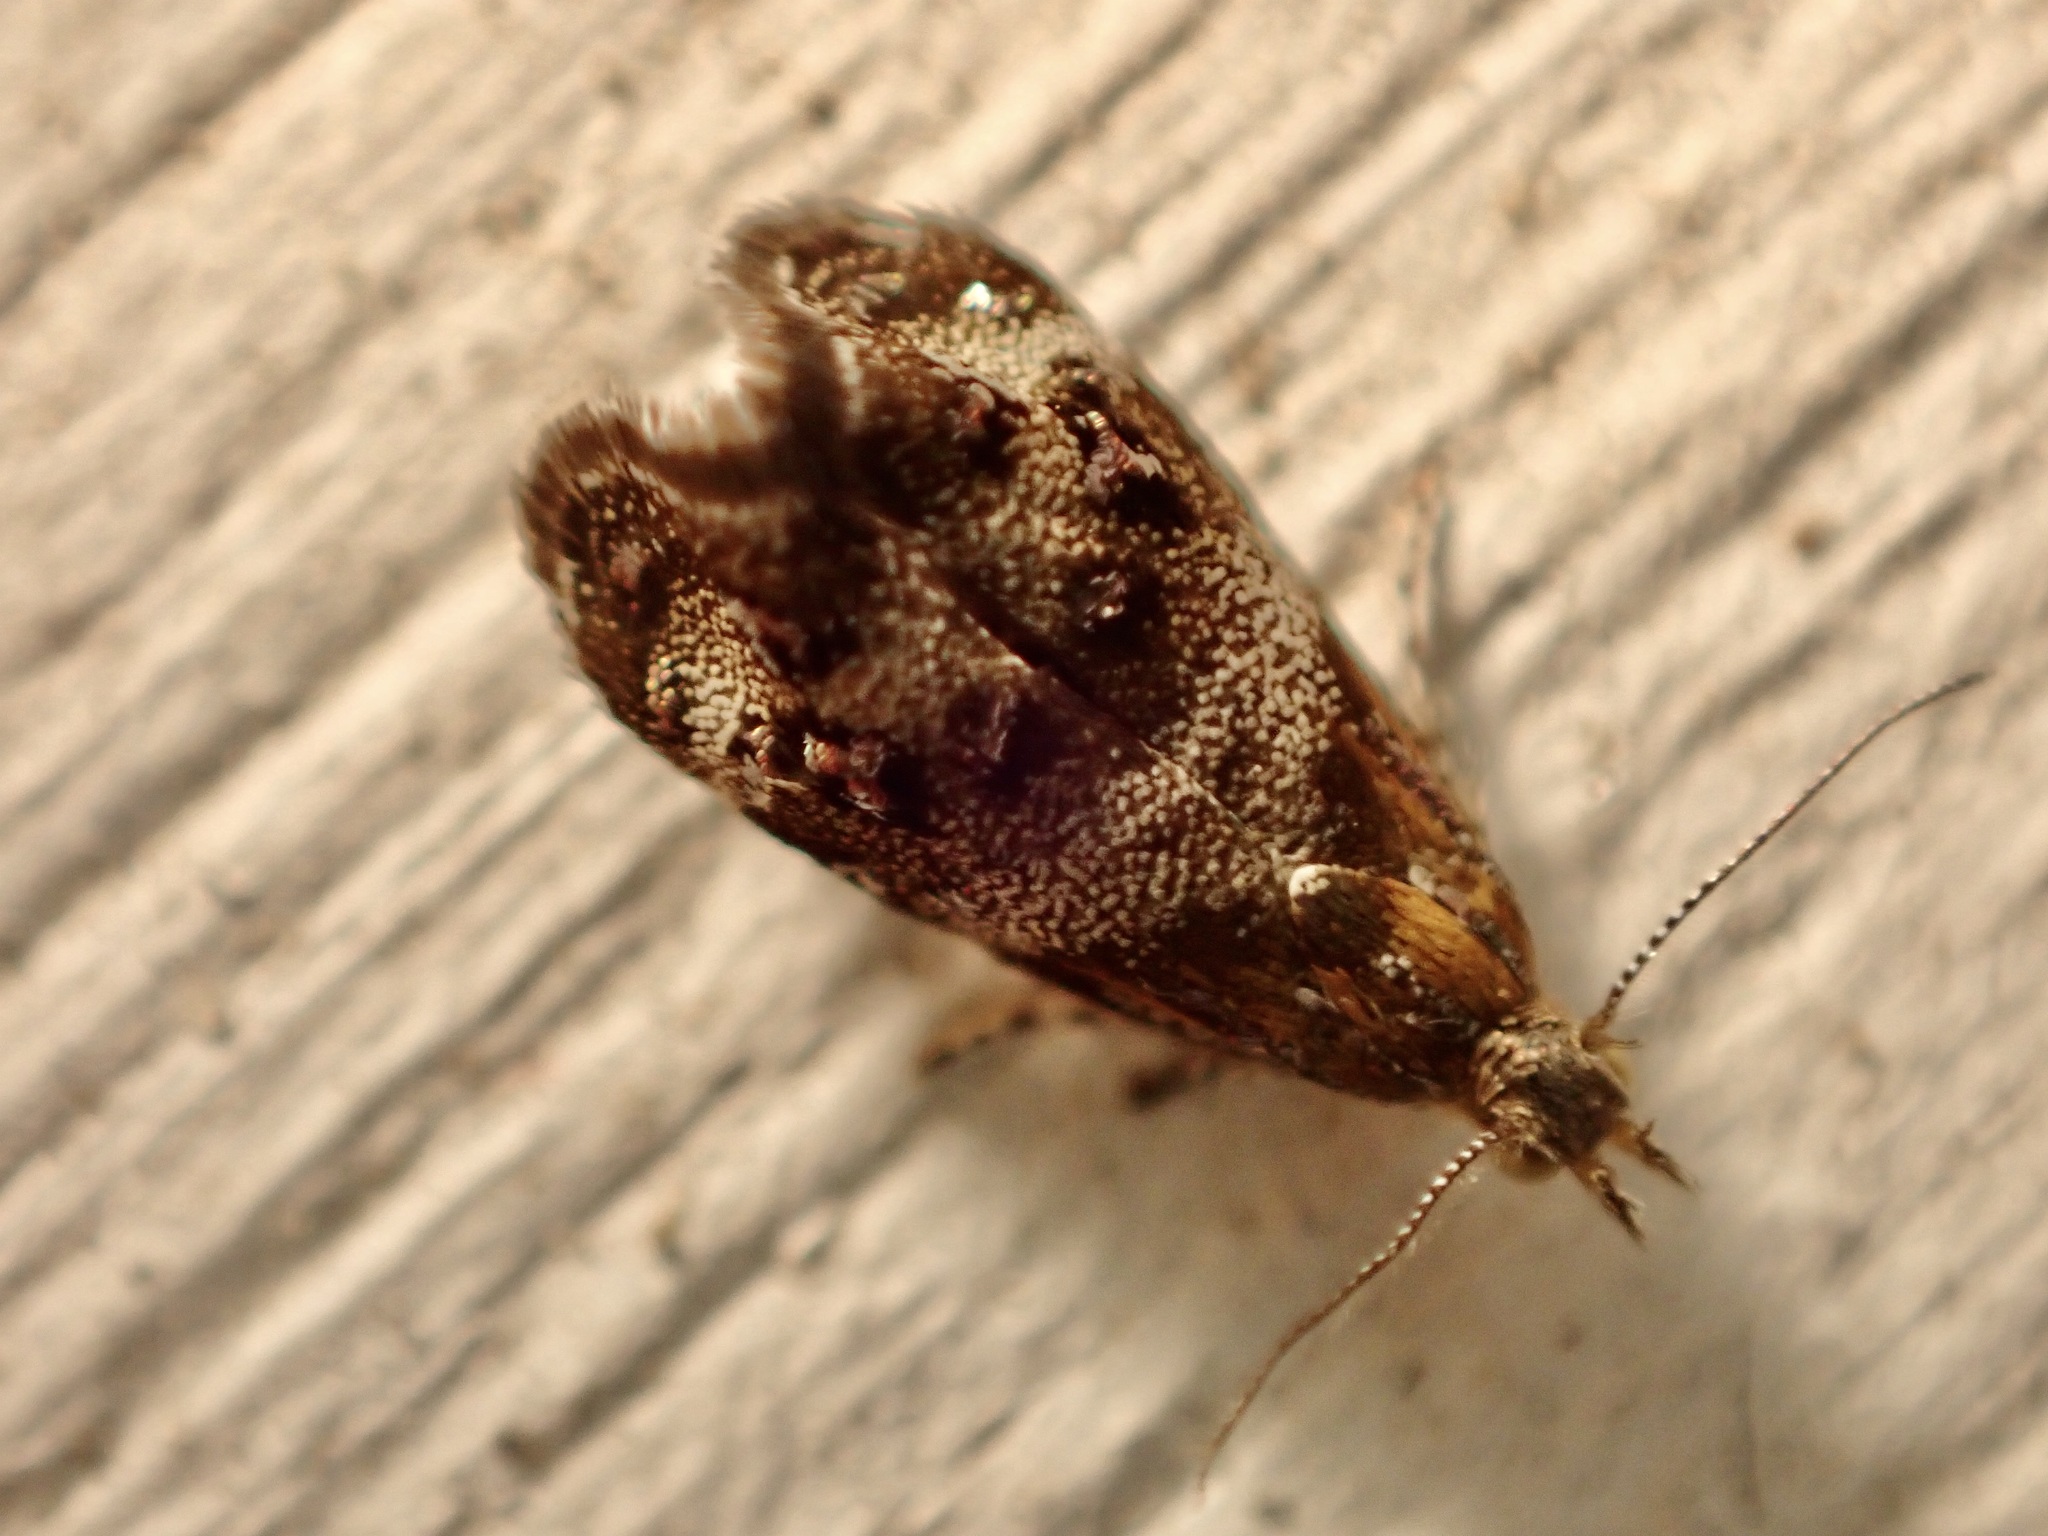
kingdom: Animalia
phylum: Arthropoda
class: Insecta
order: Lepidoptera
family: Choreutidae
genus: Tebenna
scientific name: Tebenna micalis
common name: Vagrant twitcher
